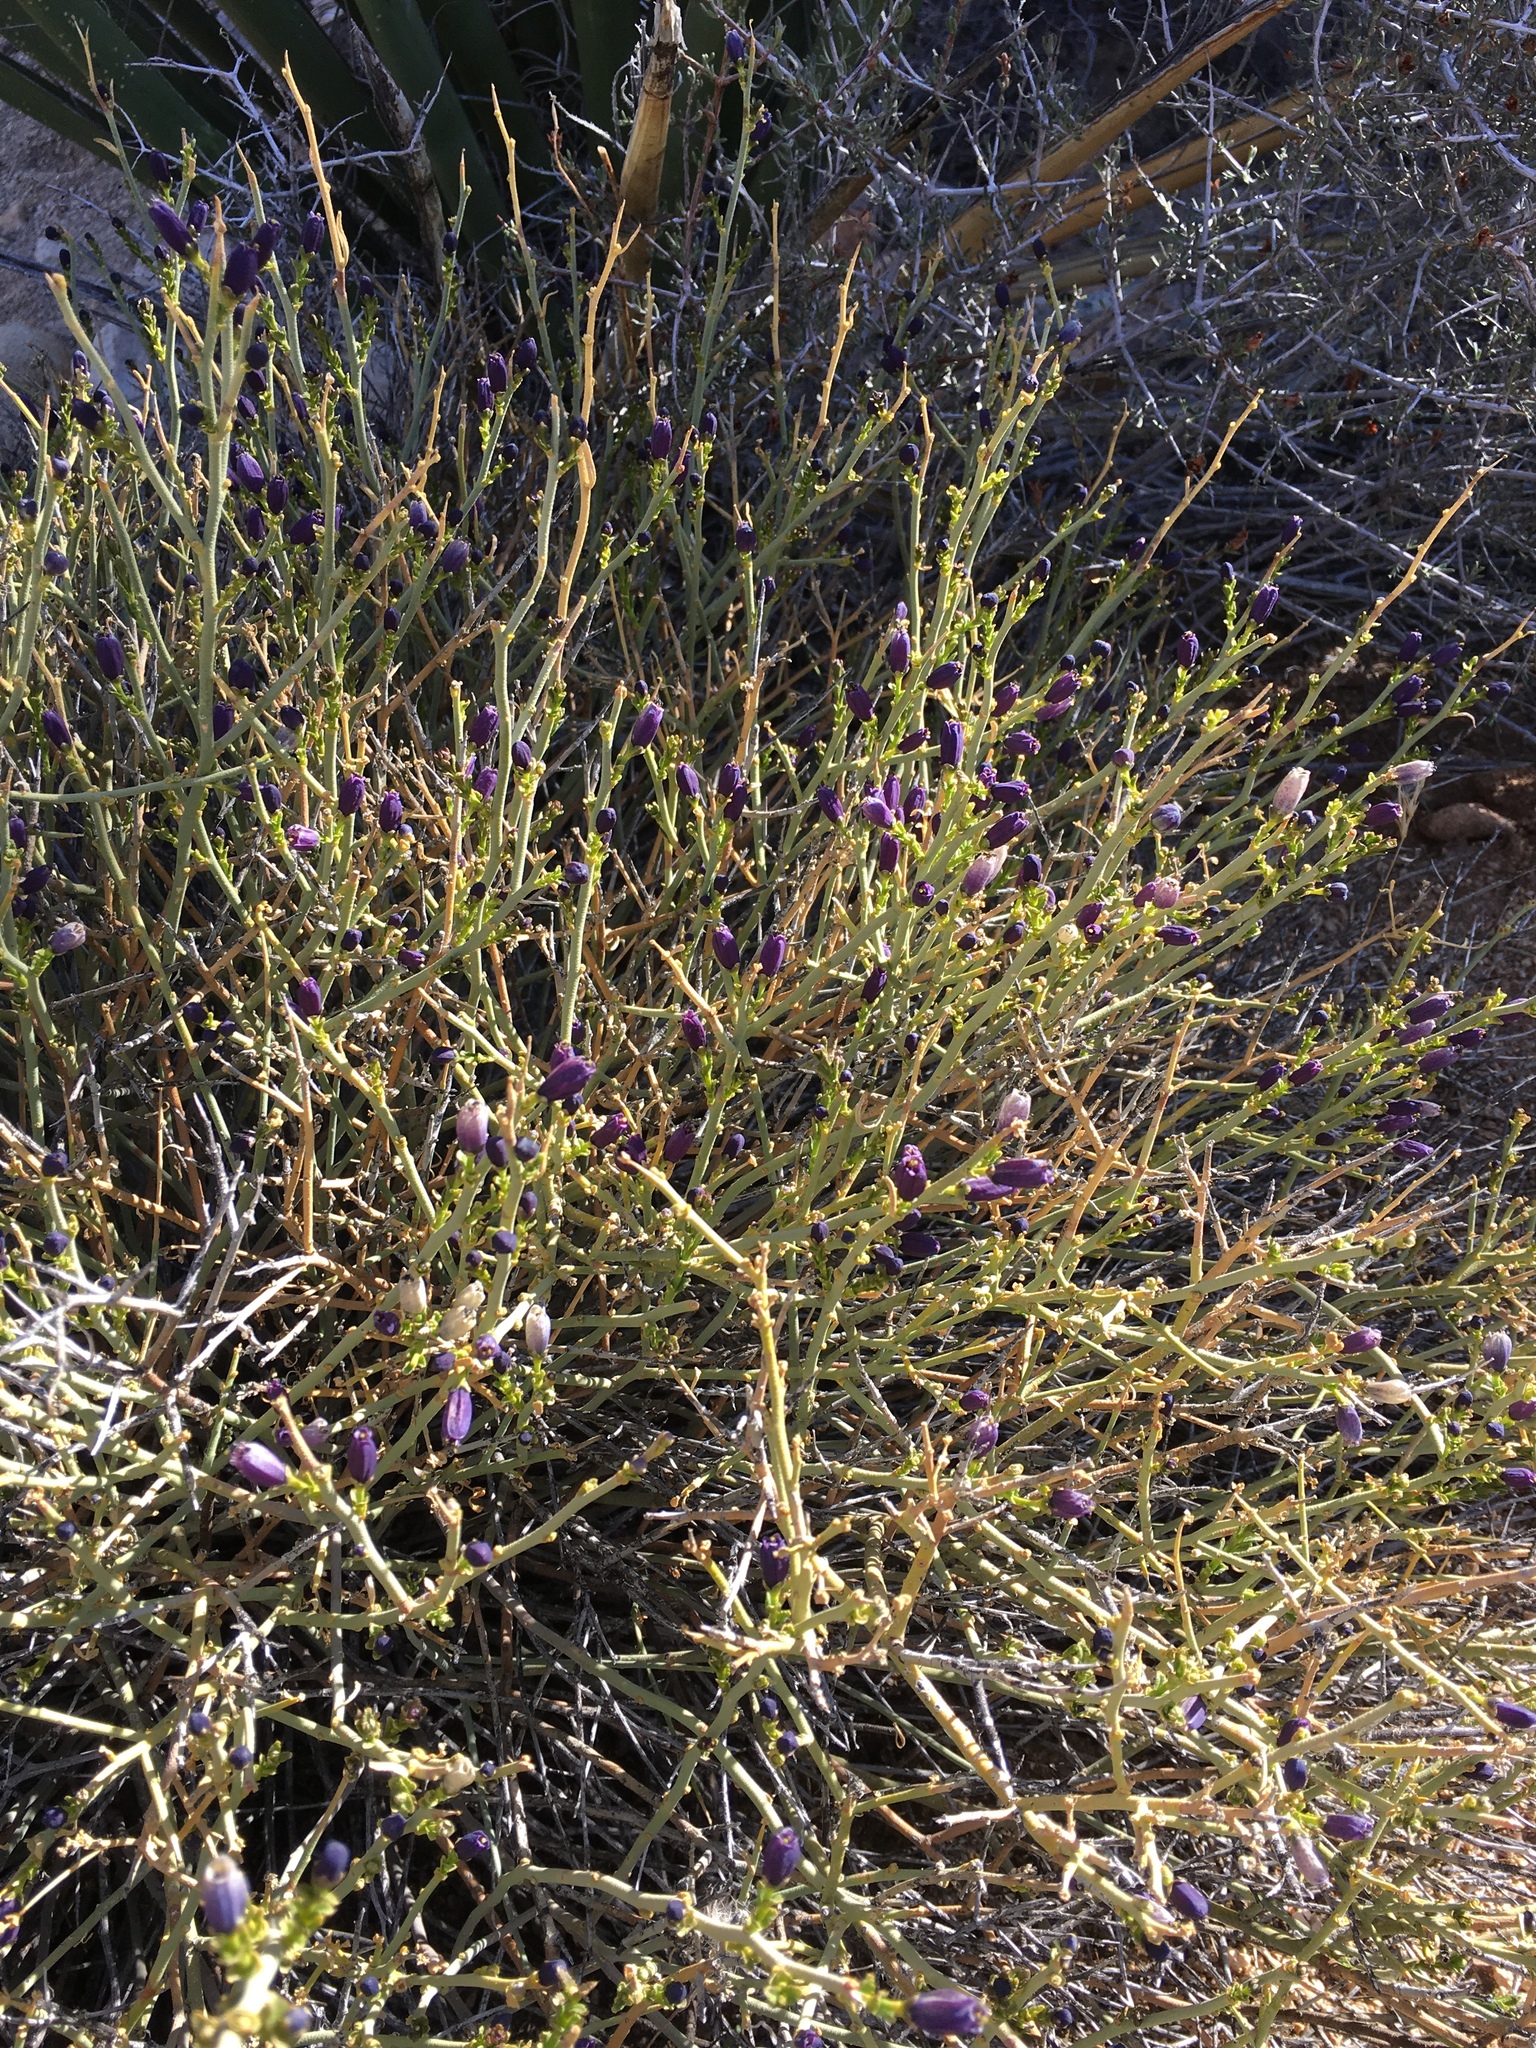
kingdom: Plantae
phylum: Tracheophyta
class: Magnoliopsida
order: Sapindales
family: Rutaceae
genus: Thamnosma
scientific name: Thamnosma montana
